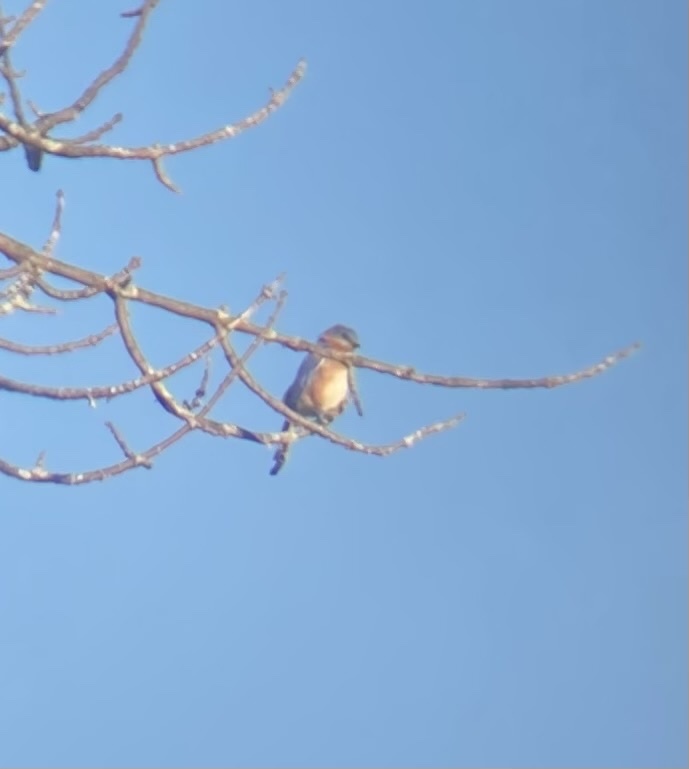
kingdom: Animalia
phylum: Chordata
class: Aves
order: Passeriformes
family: Turdidae
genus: Sialia
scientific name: Sialia sialis
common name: Eastern bluebird
